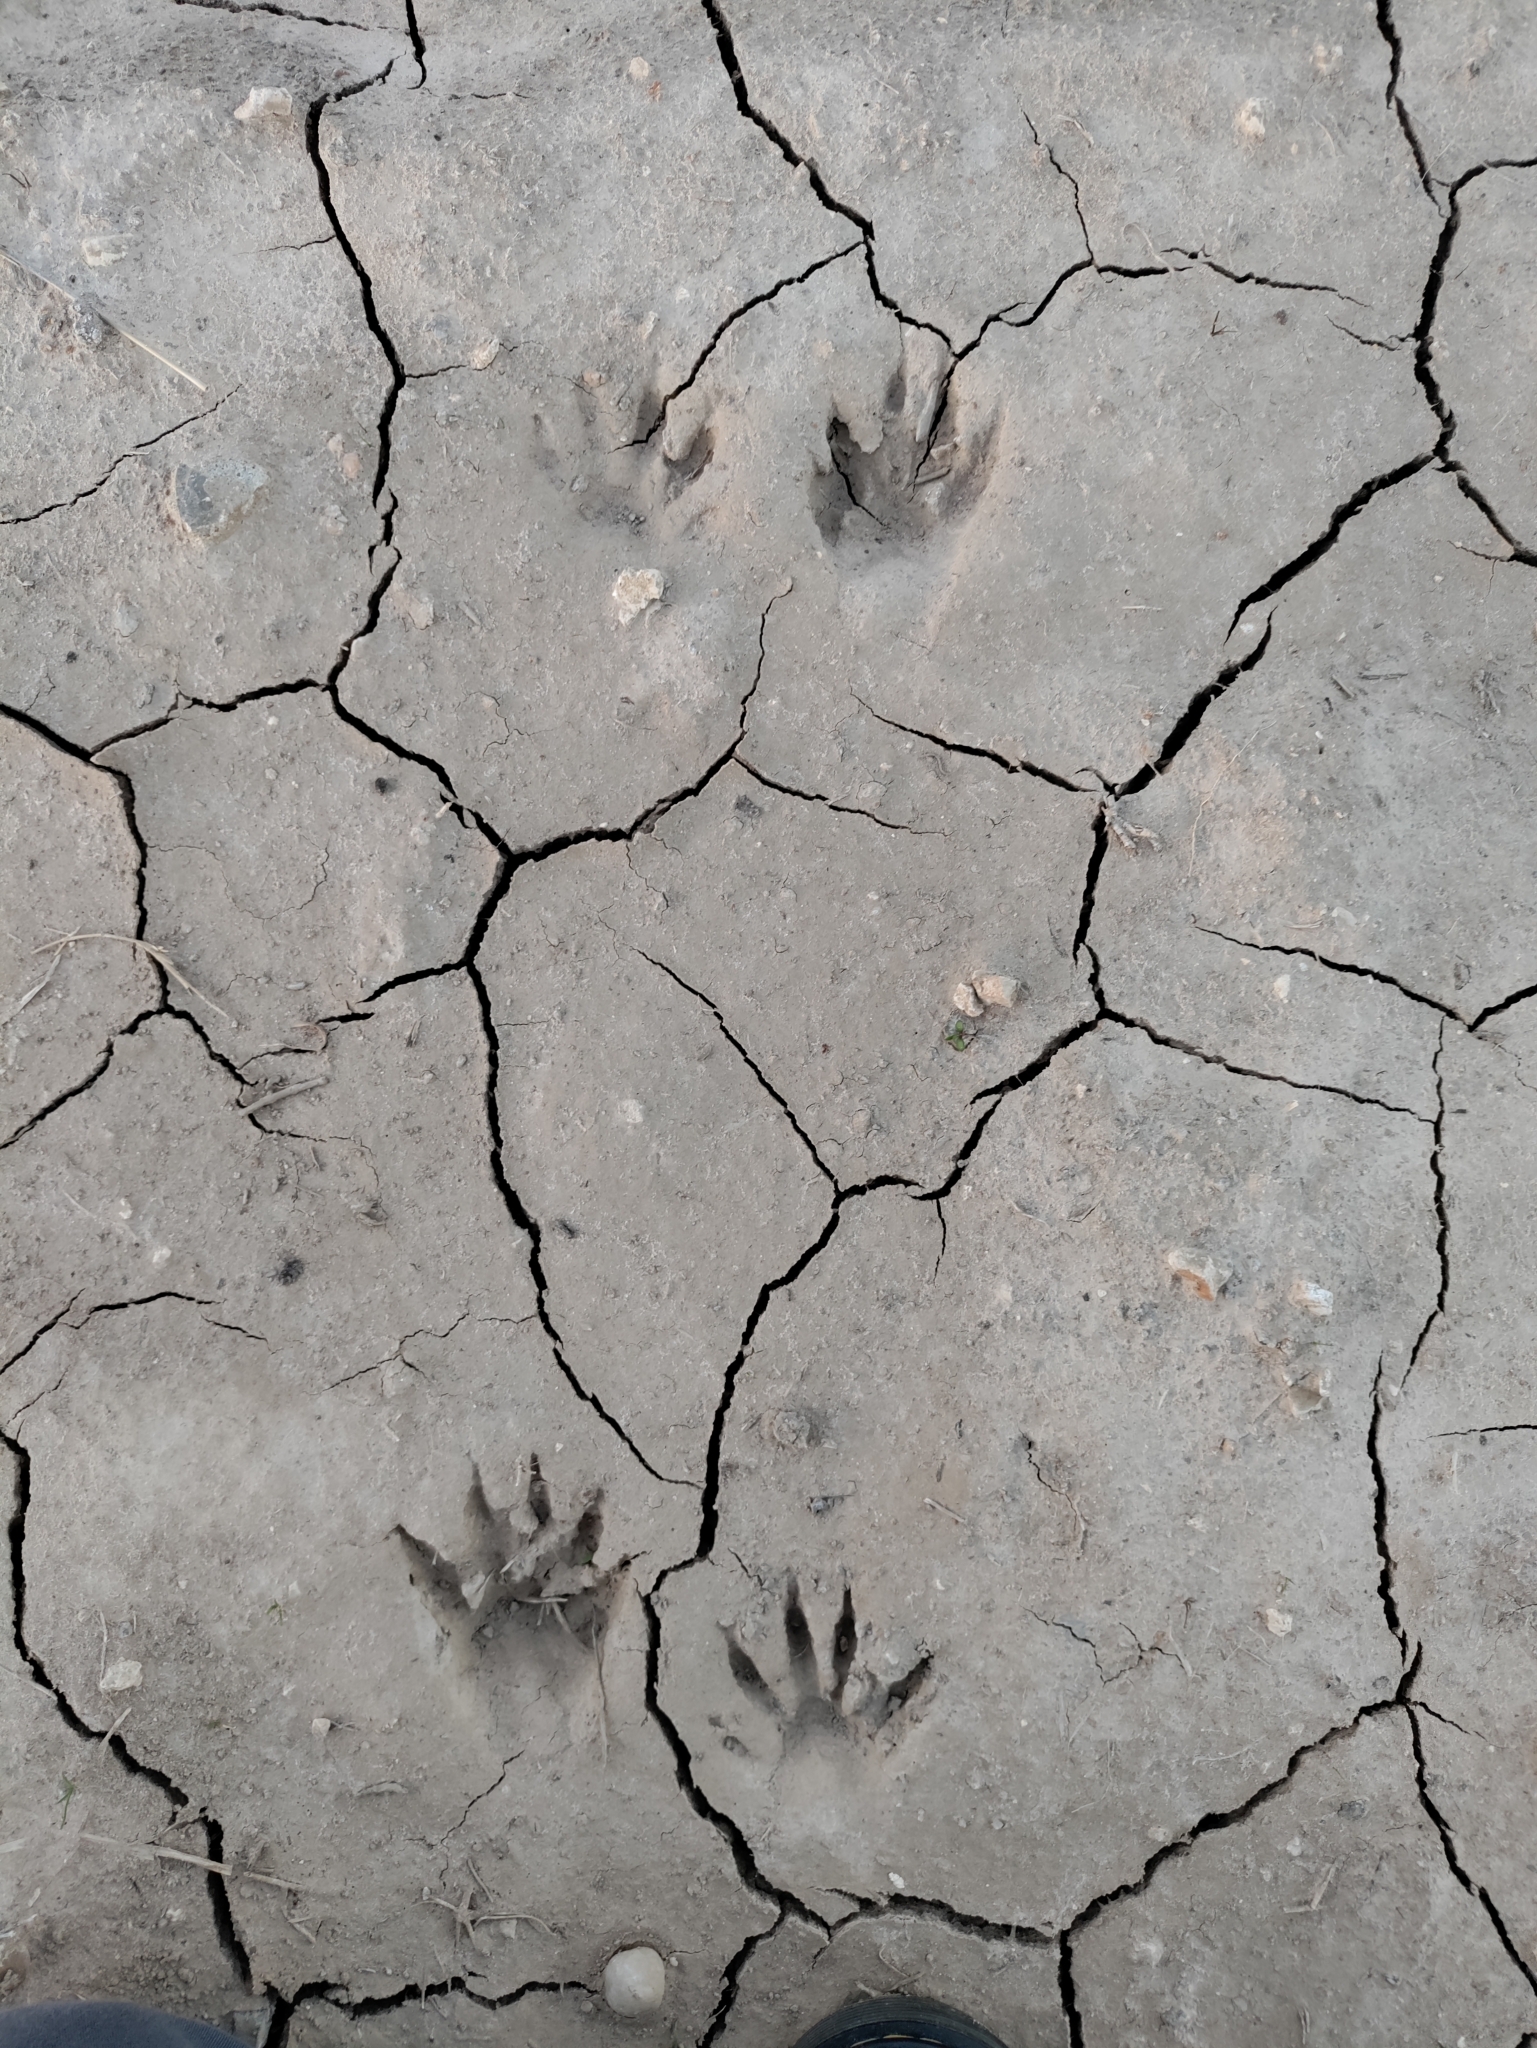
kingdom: Animalia
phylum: Chordata
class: Mammalia
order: Carnivora
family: Procyonidae
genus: Procyon
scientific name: Procyon lotor
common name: Raccoon
